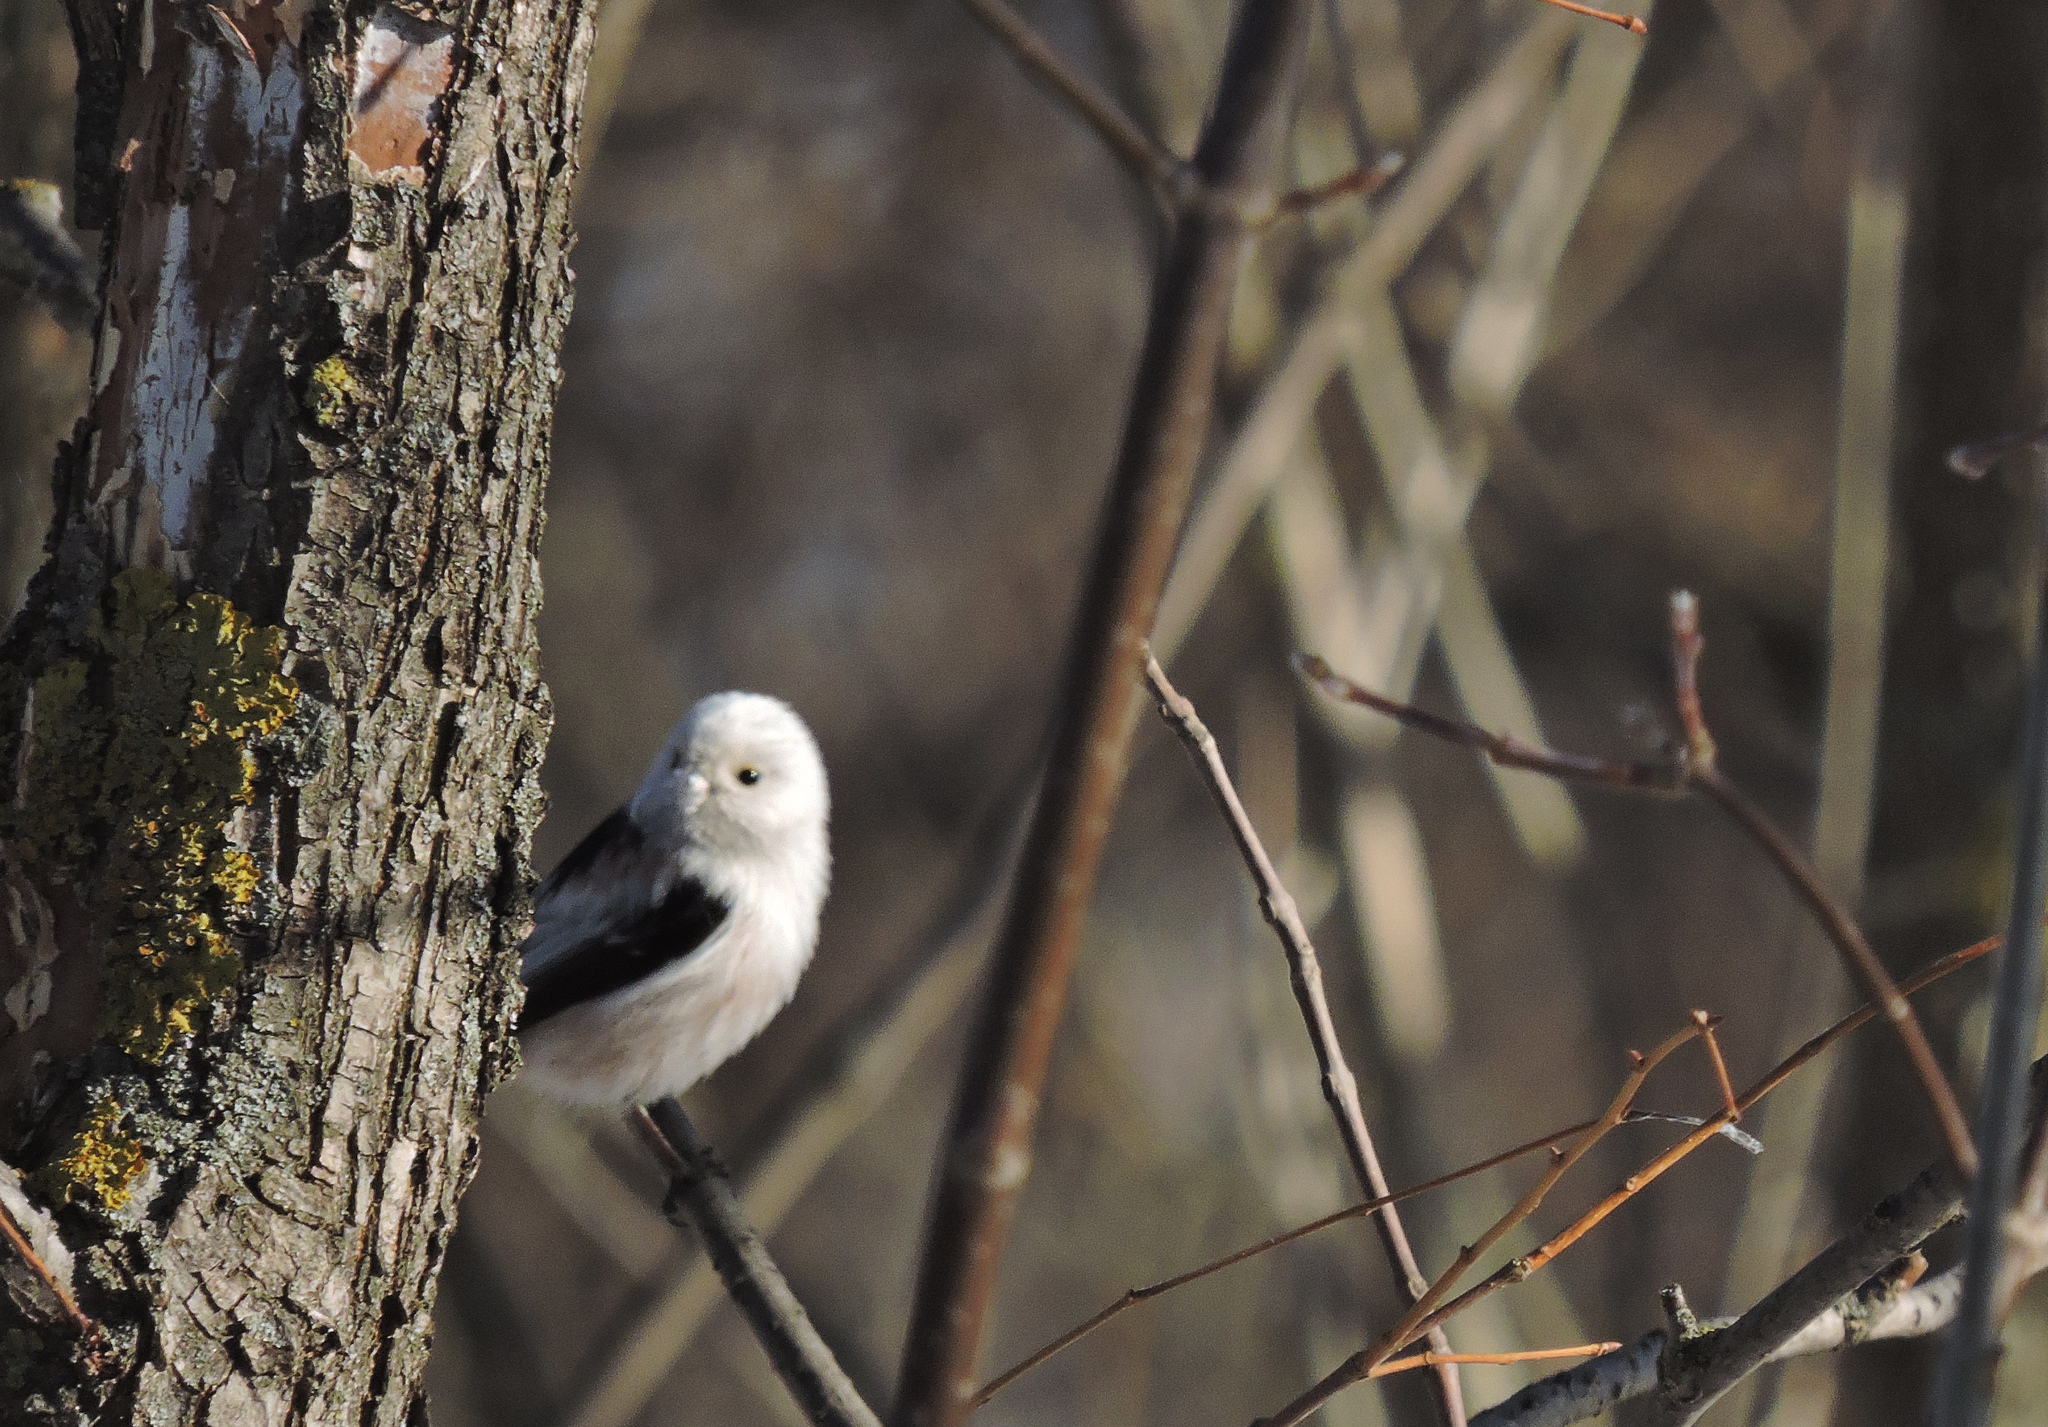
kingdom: Animalia
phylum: Chordata
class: Aves
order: Passeriformes
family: Aegithalidae
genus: Aegithalos
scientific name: Aegithalos caudatus
